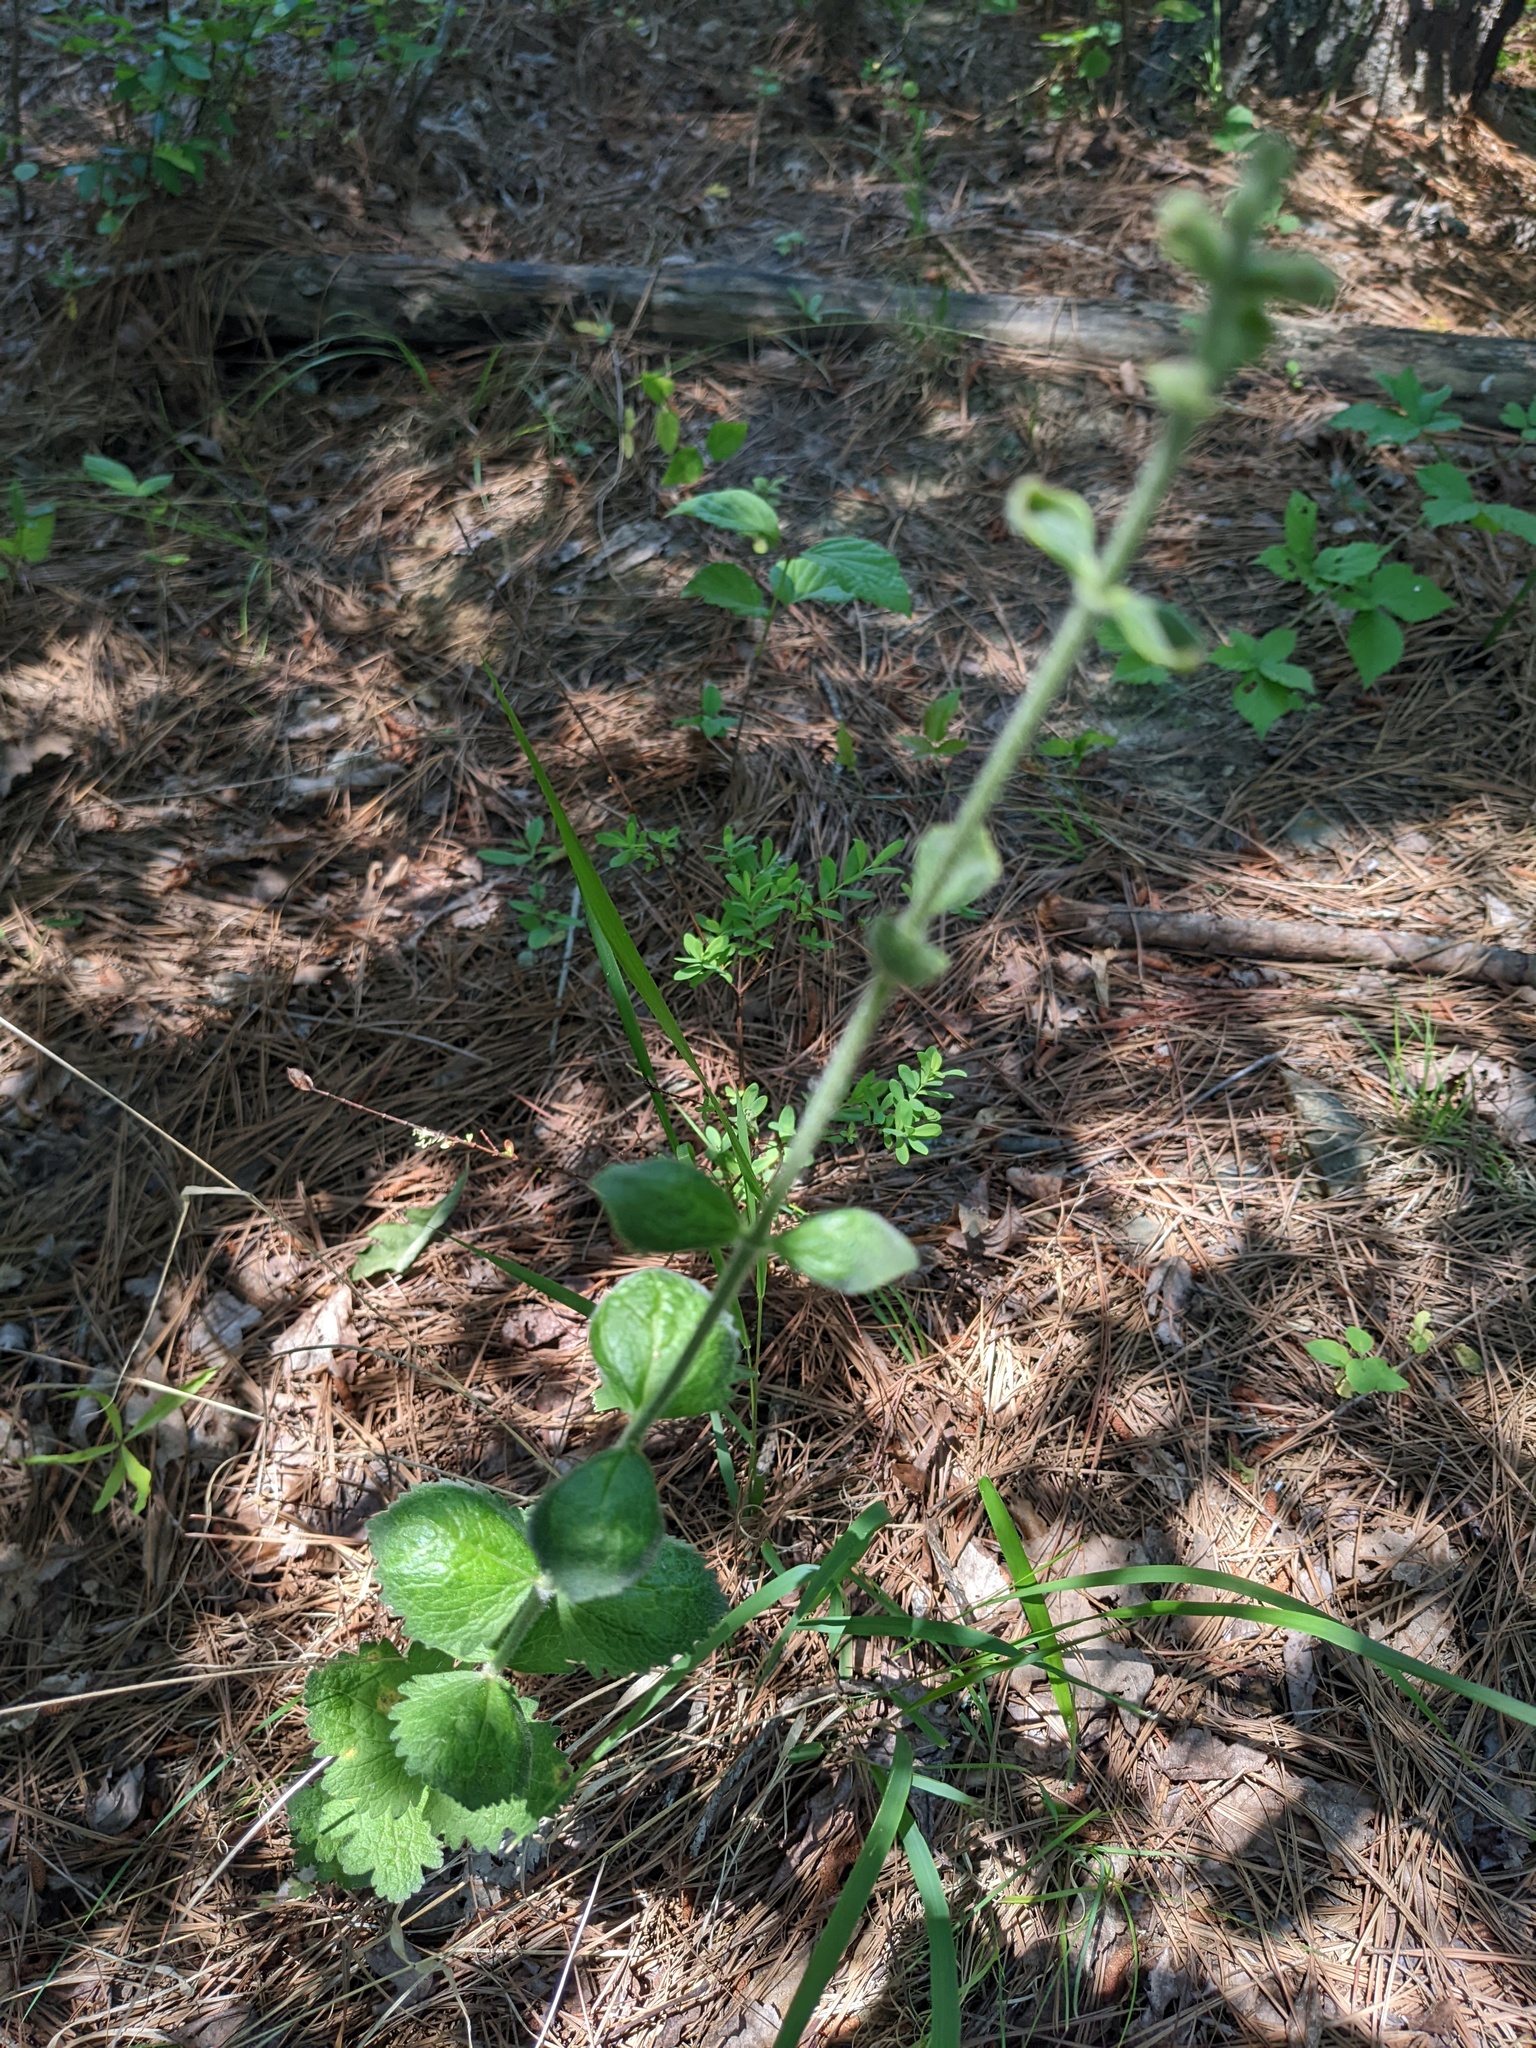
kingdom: Plantae
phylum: Tracheophyta
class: Magnoliopsida
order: Asterales
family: Asteraceae
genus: Eupatorium
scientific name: Eupatorium rotundifolium
